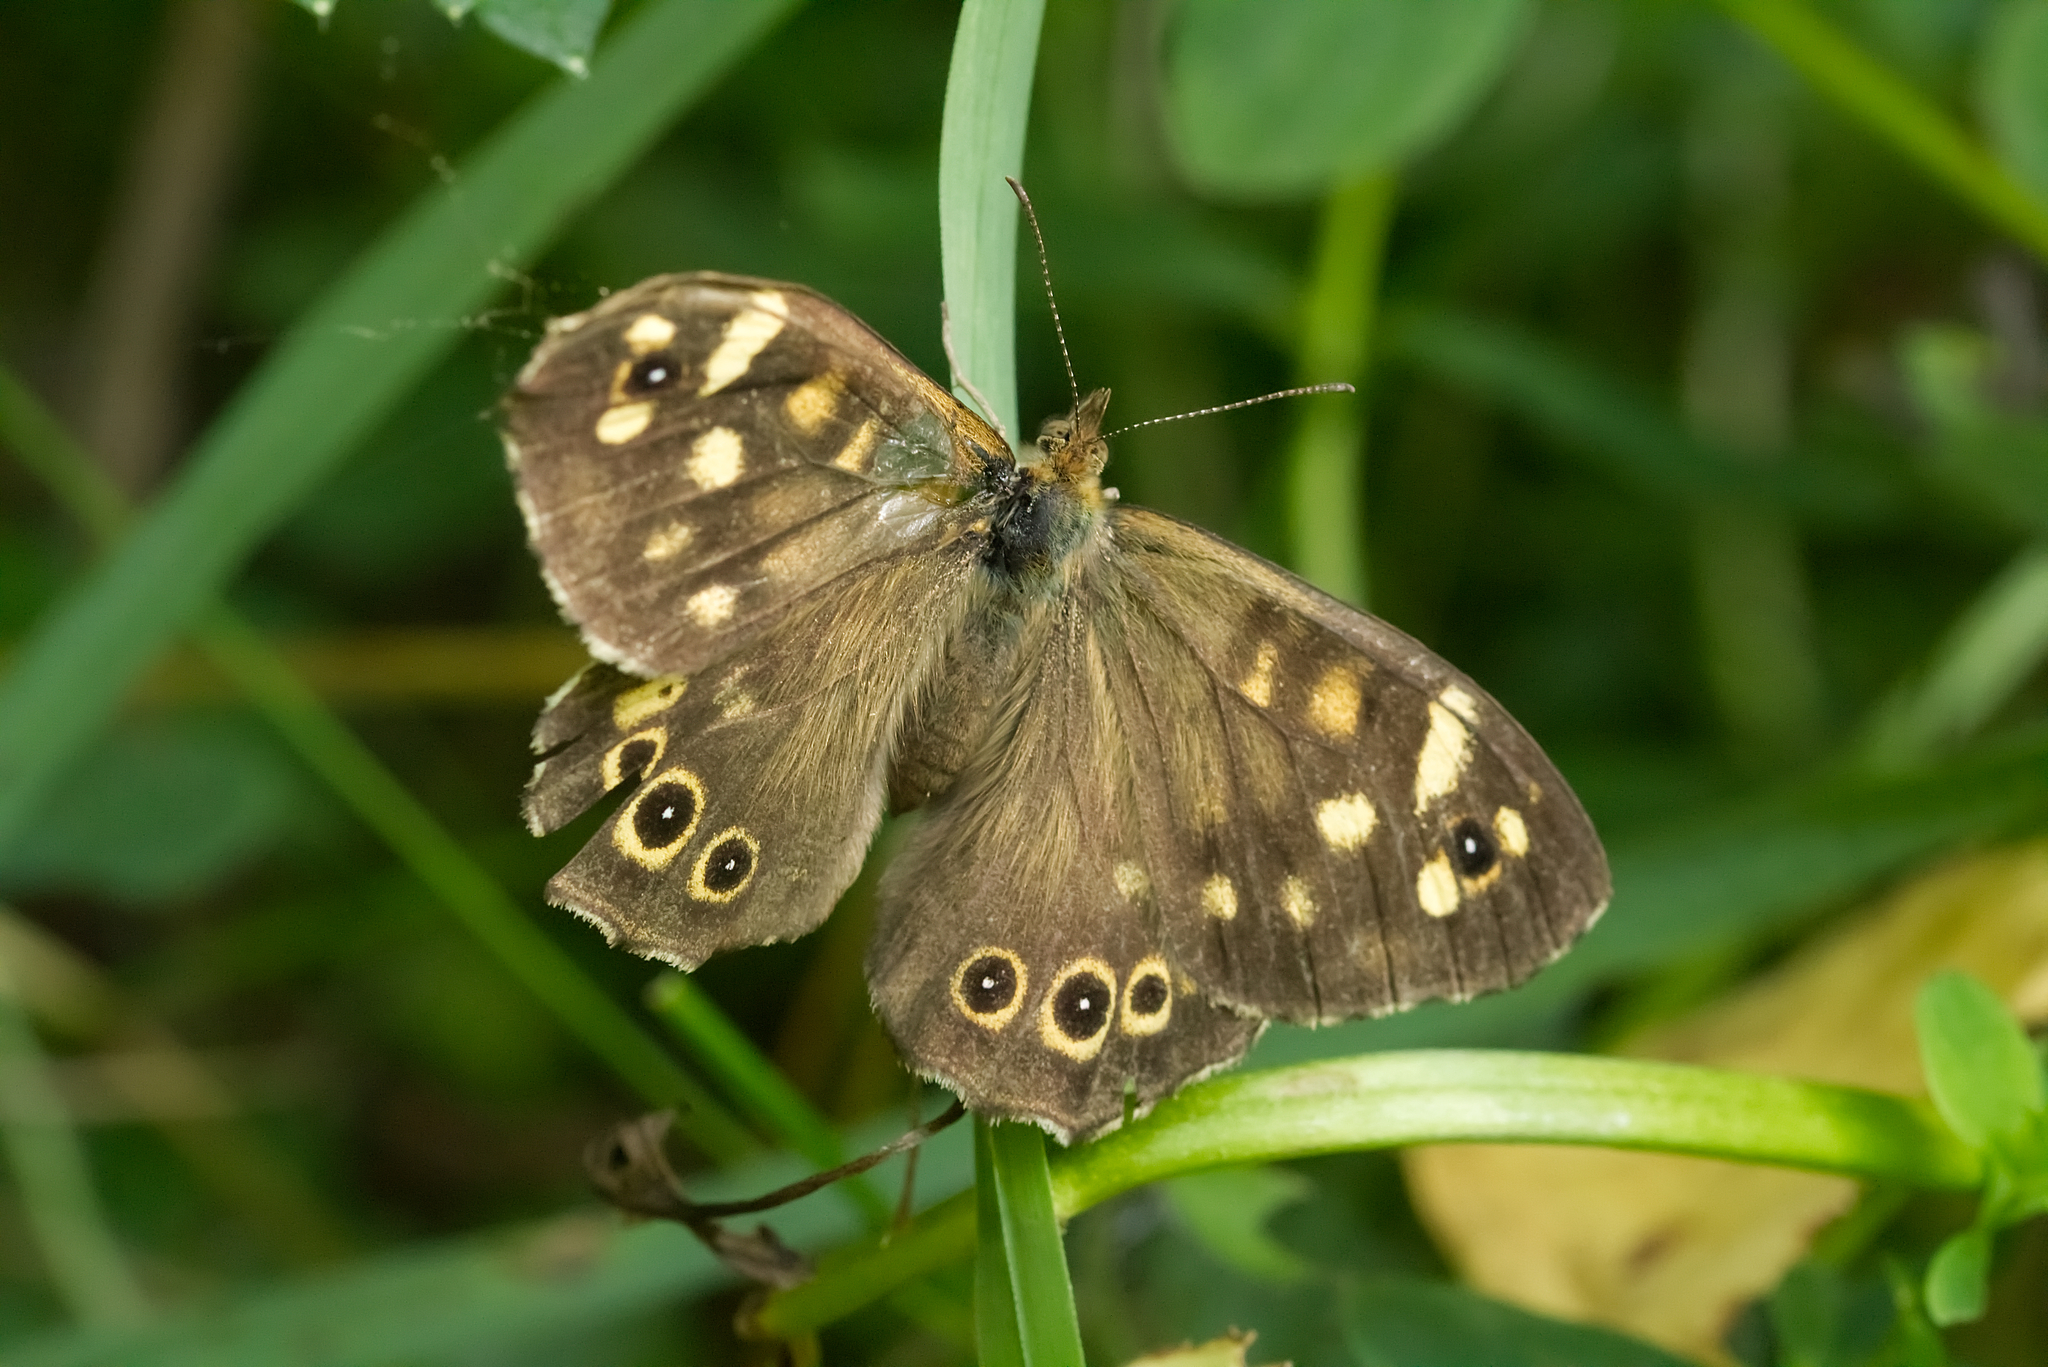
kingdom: Animalia
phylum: Arthropoda
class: Insecta
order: Lepidoptera
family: Nymphalidae
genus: Pararge
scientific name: Pararge aegeria
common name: Speckled wood
